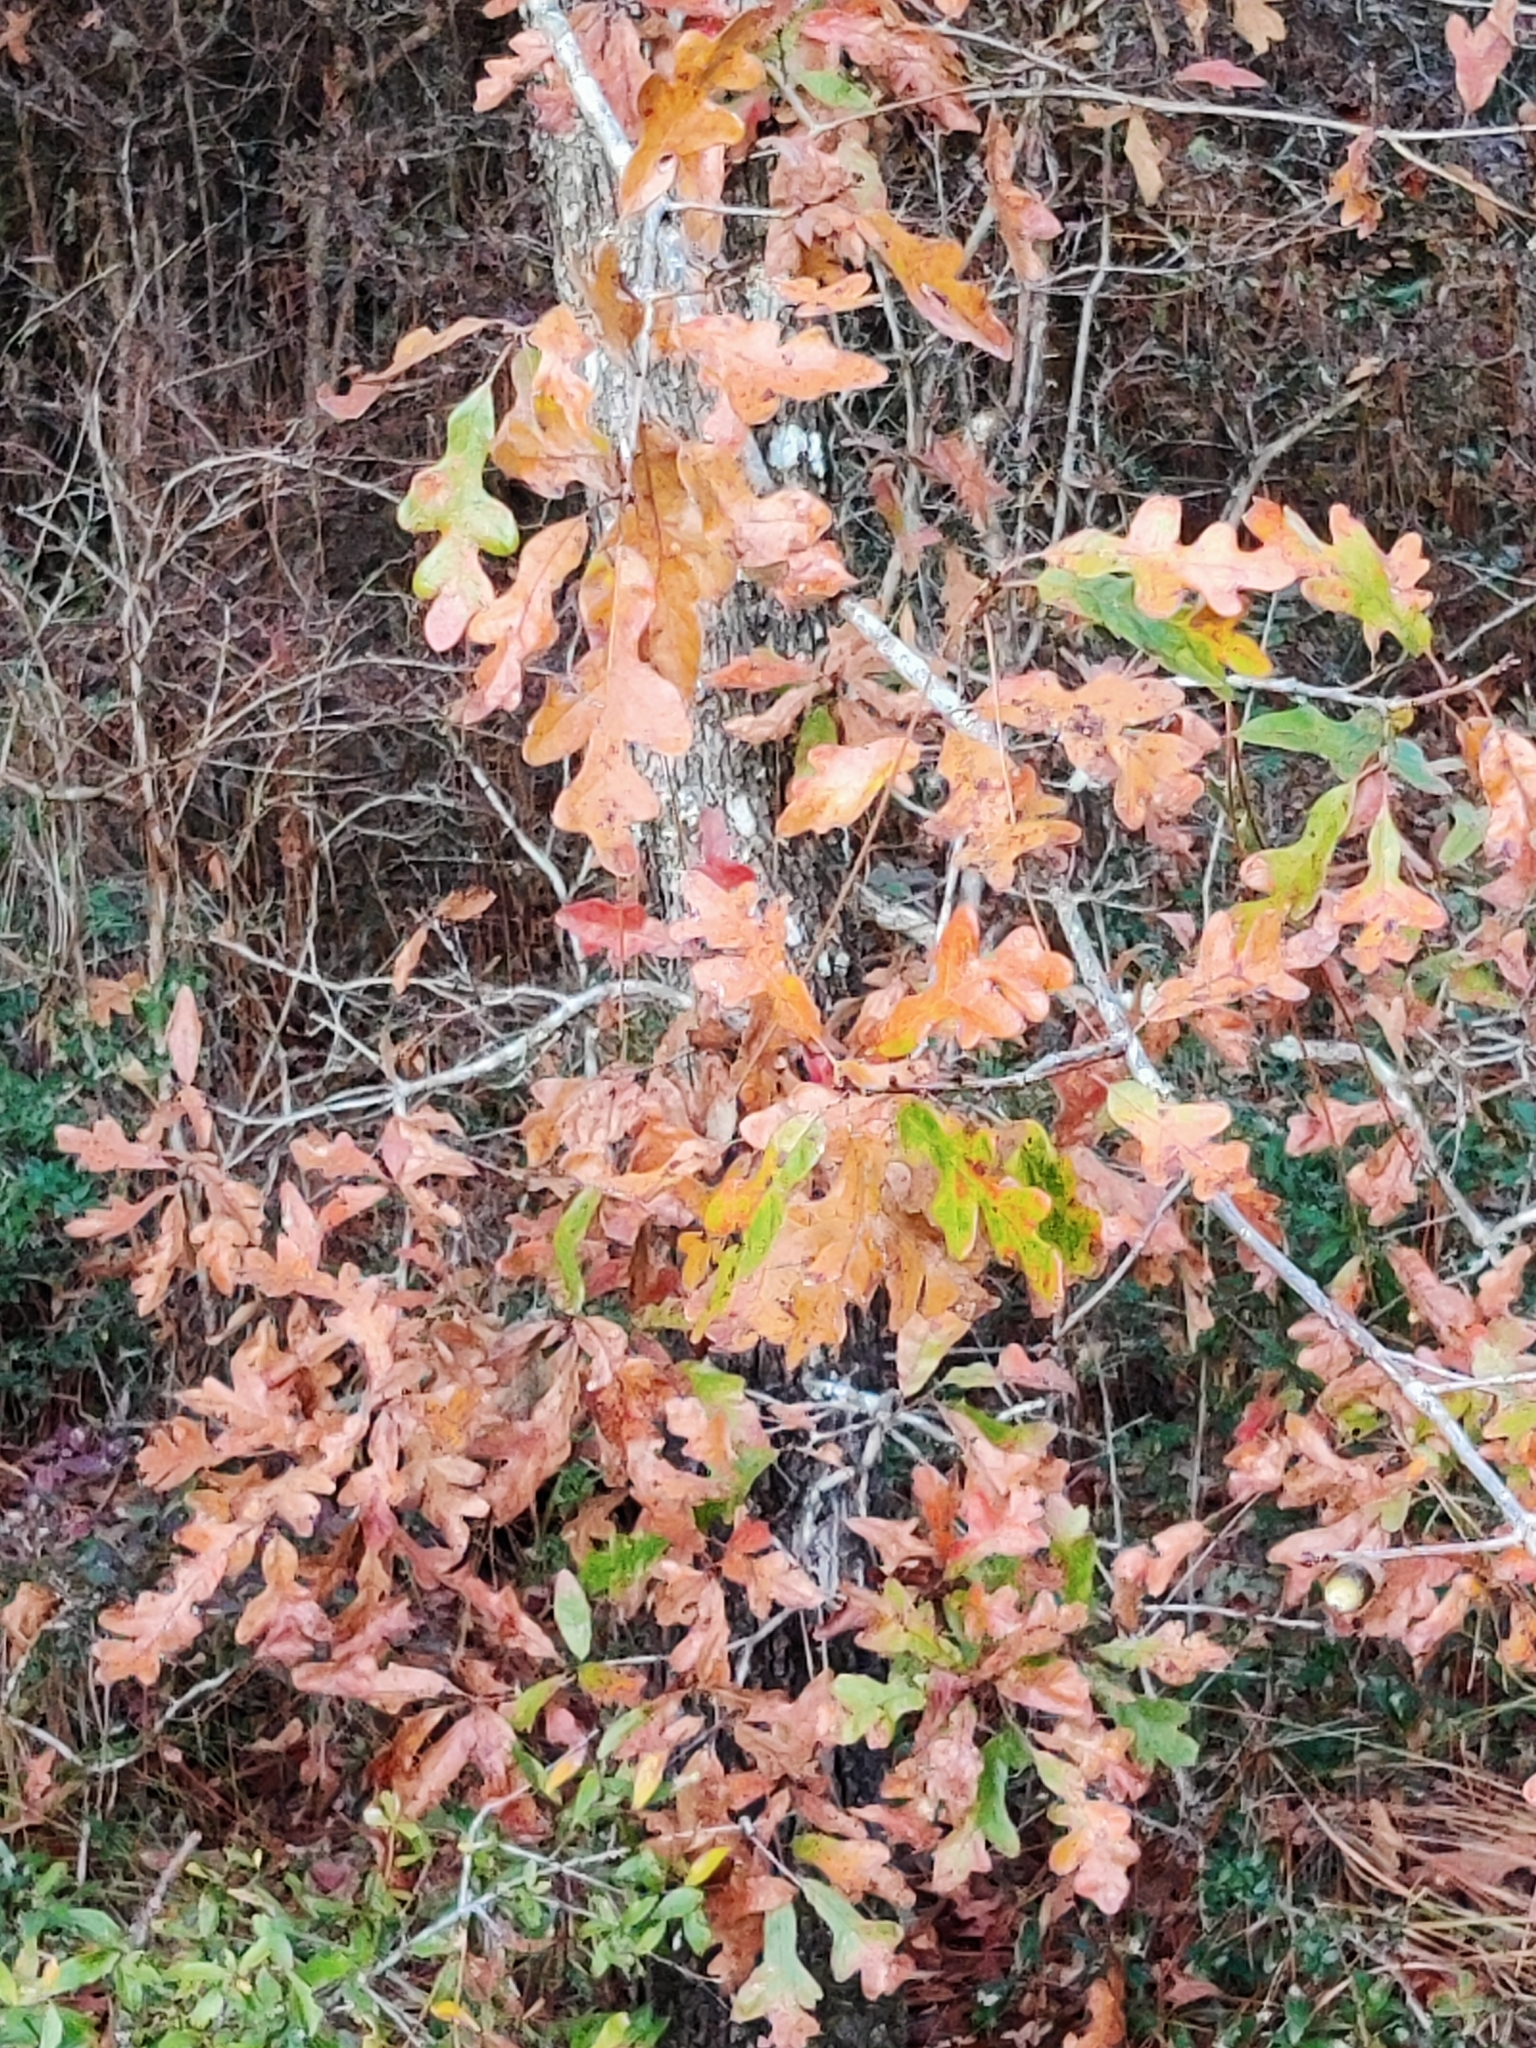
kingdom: Plantae
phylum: Tracheophyta
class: Magnoliopsida
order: Fagales
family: Fagaceae
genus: Quercus
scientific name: Quercus margaretiae
